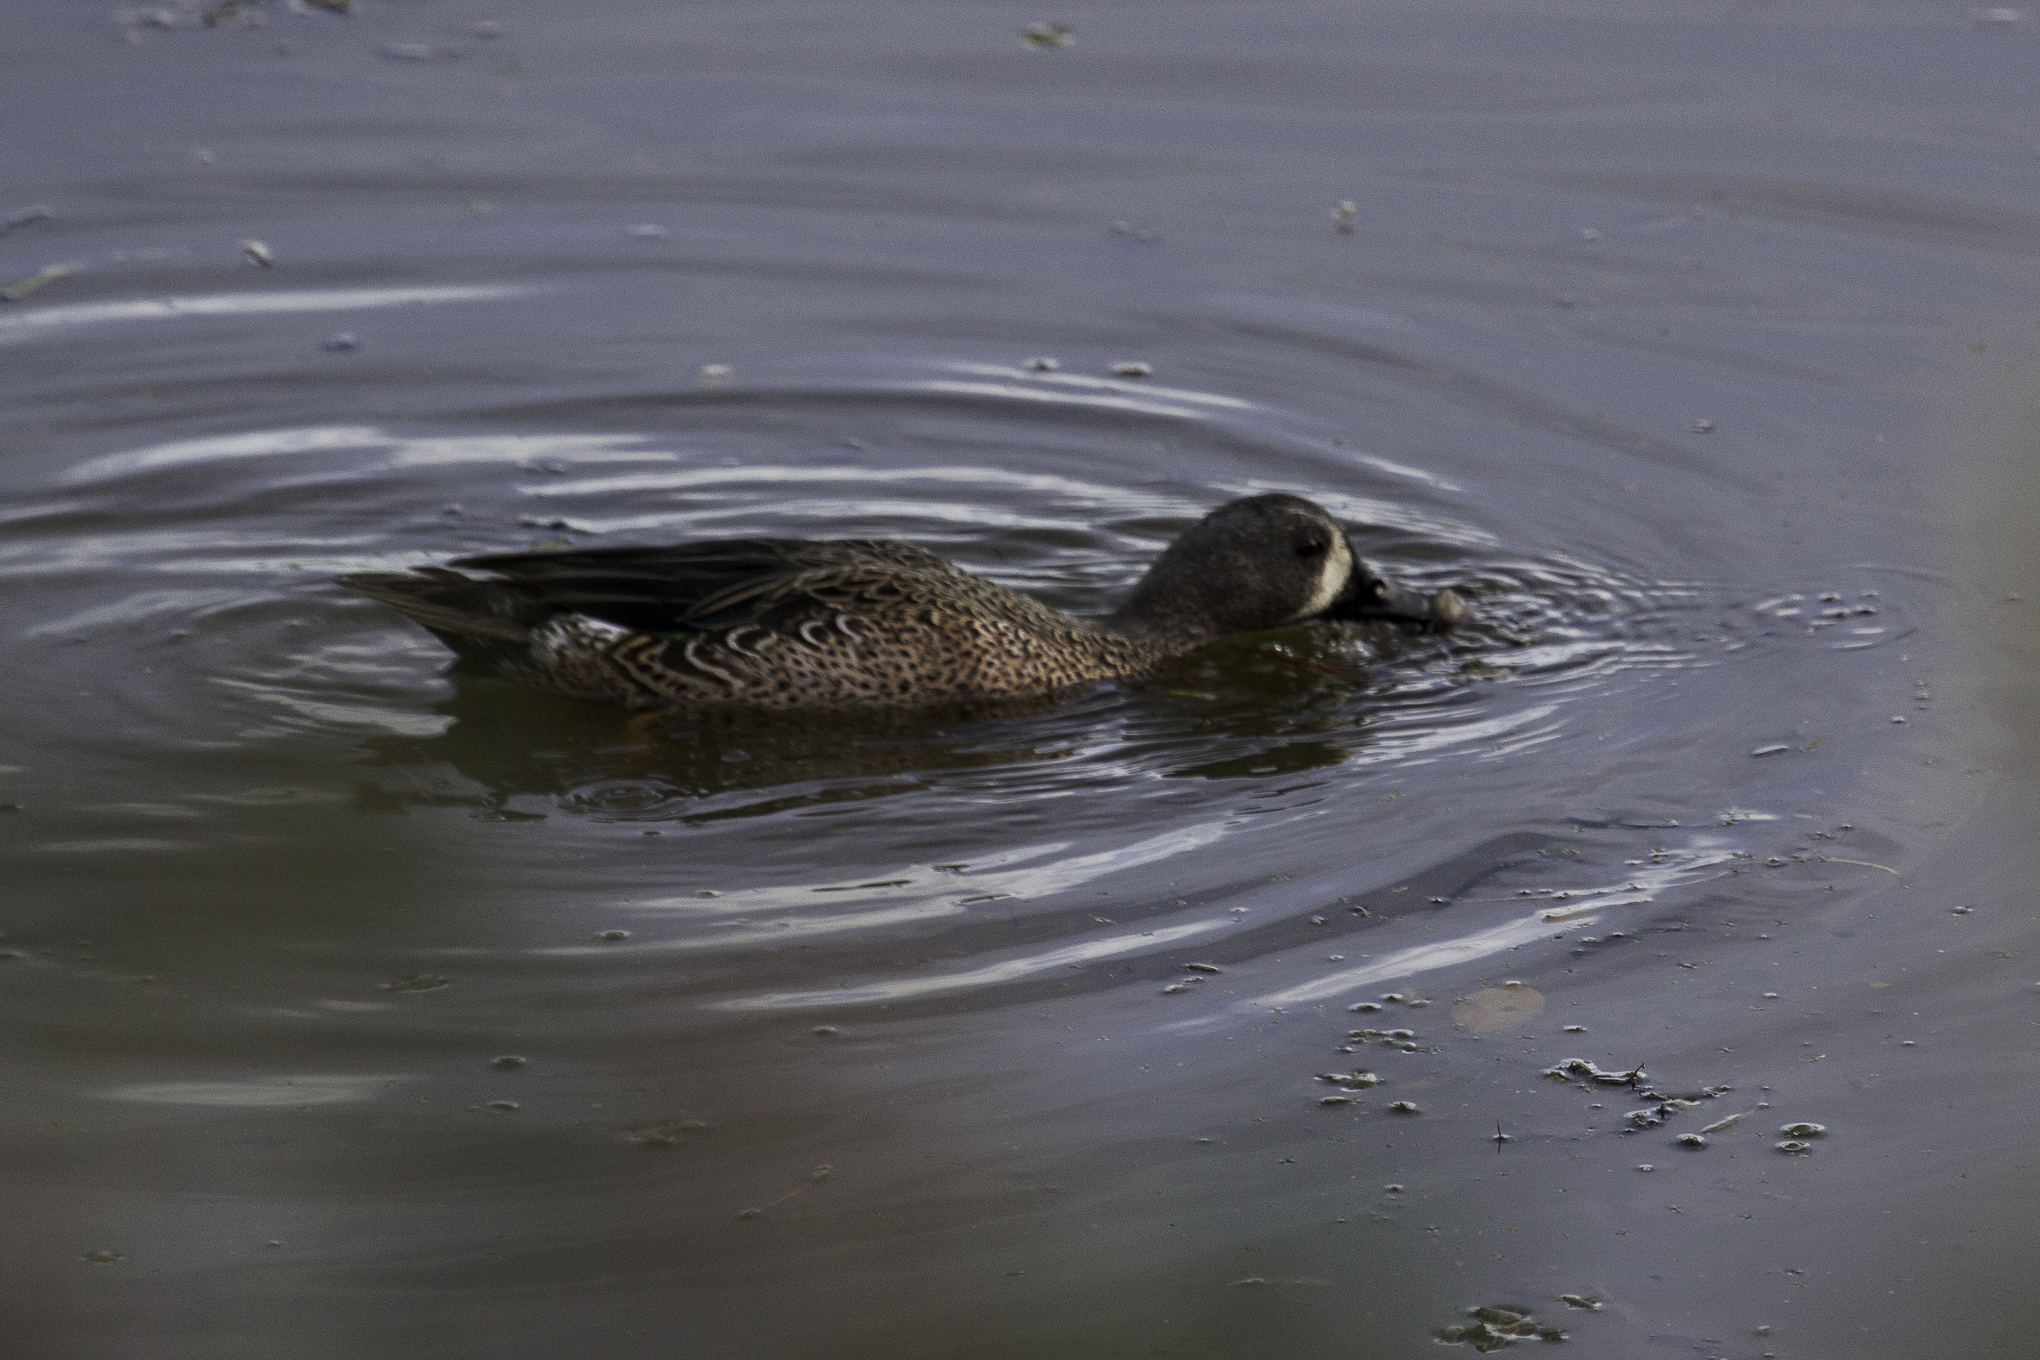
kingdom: Animalia
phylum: Chordata
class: Aves
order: Anseriformes
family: Anatidae
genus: Spatula
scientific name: Spatula discors
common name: Blue-winged teal
